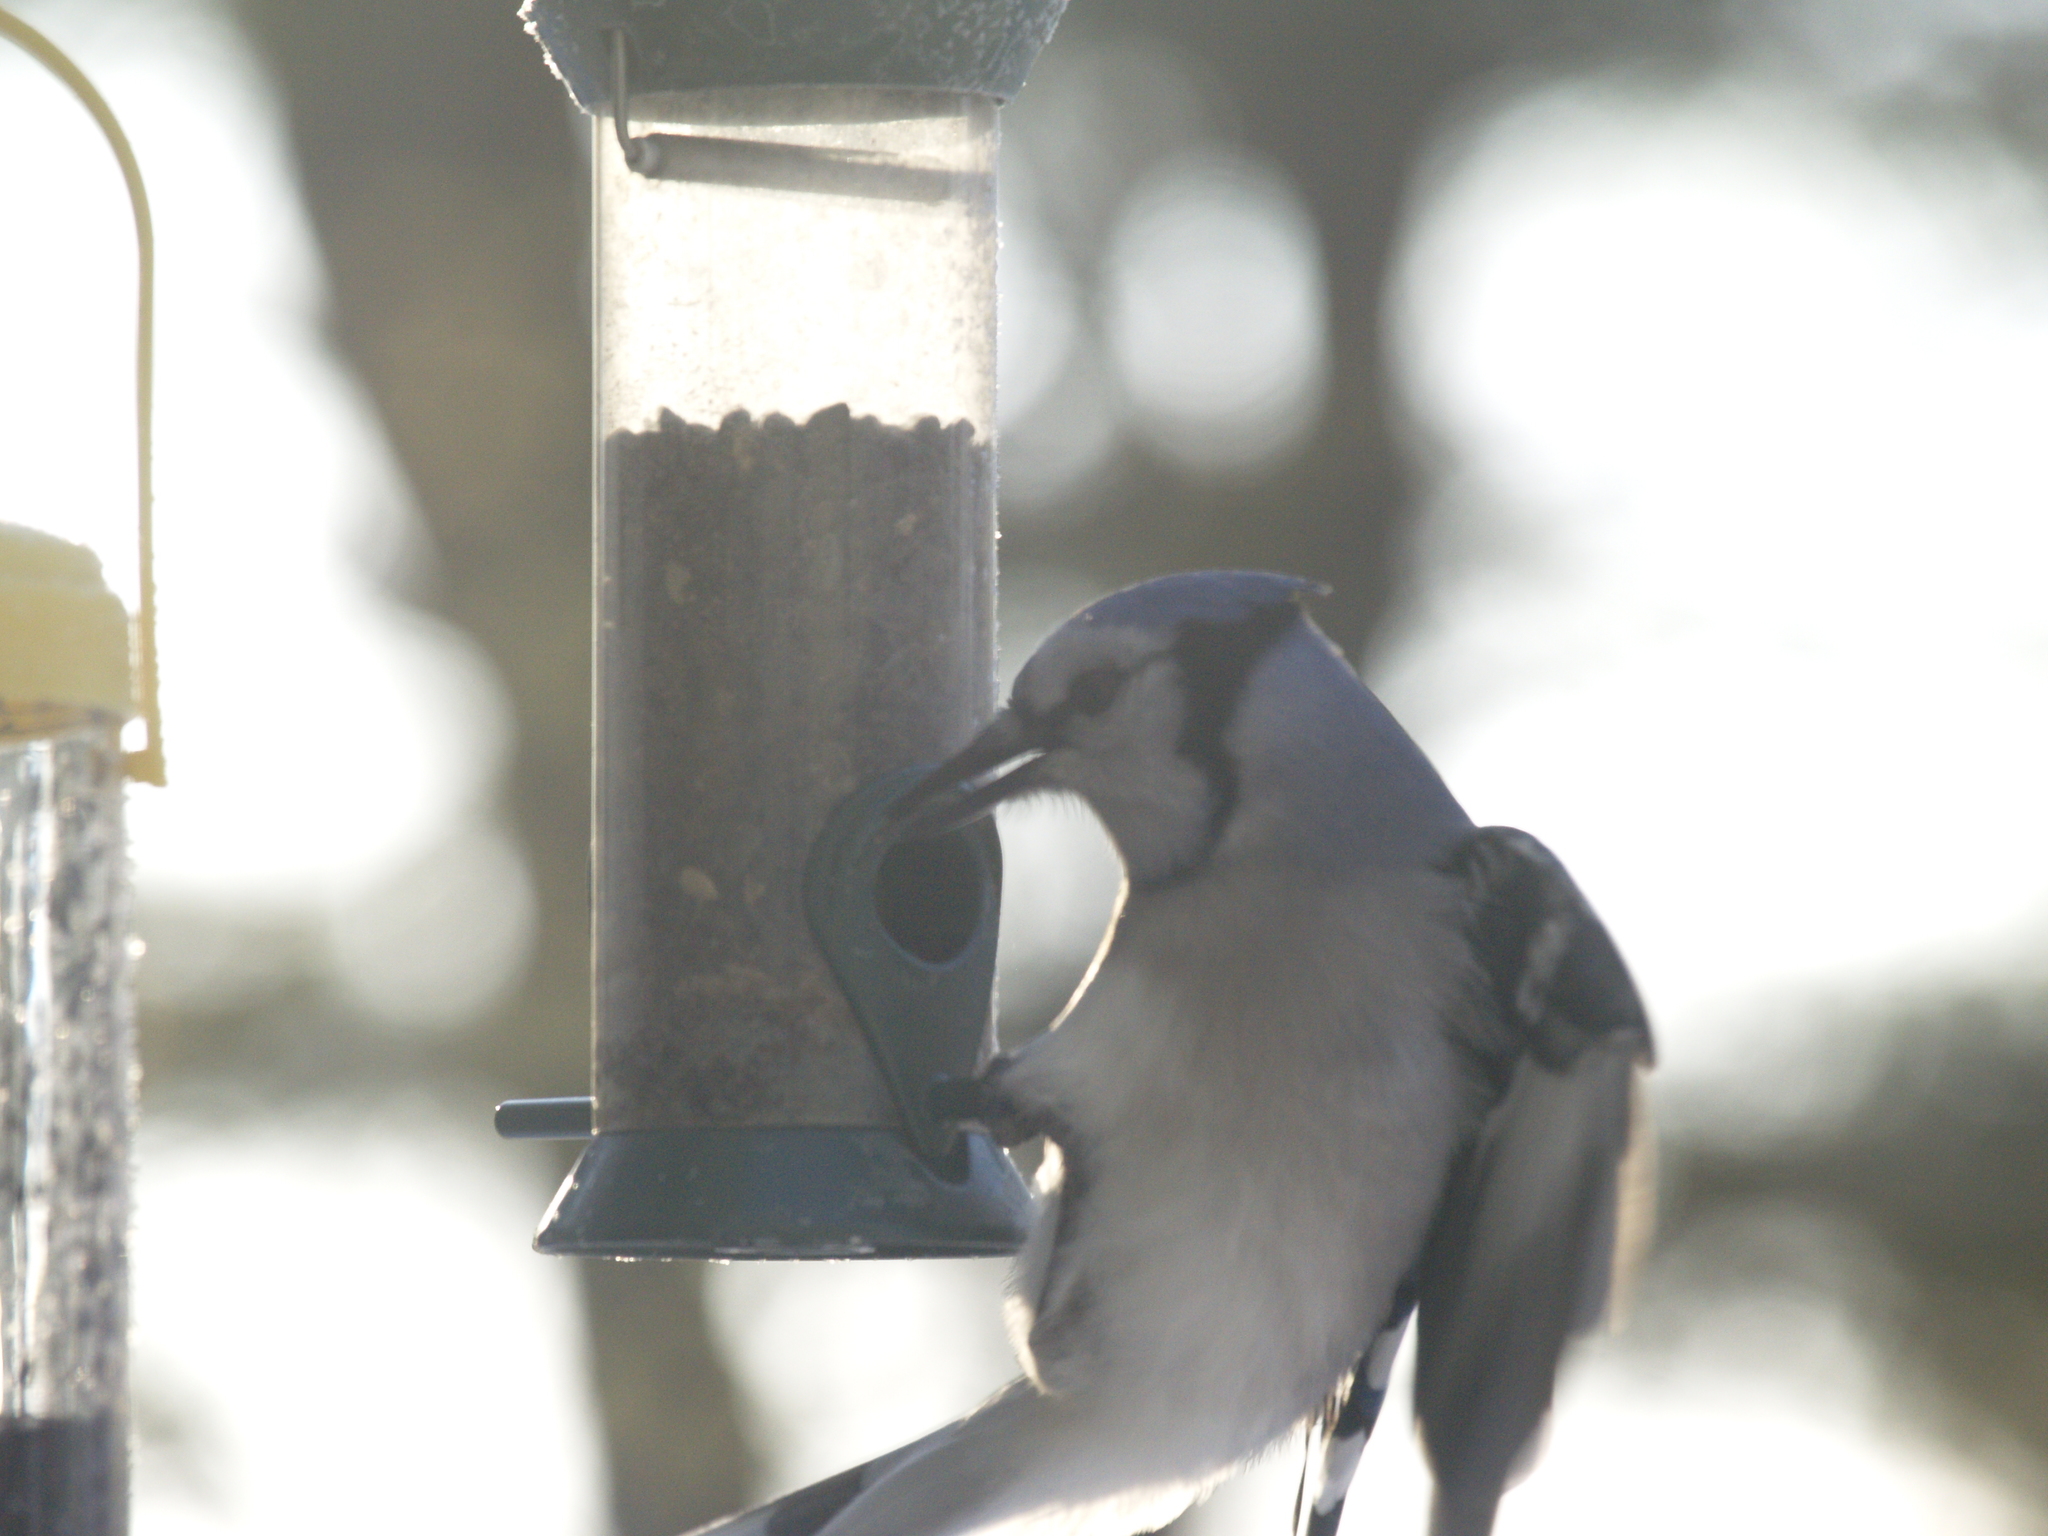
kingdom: Animalia
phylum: Chordata
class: Aves
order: Passeriformes
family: Corvidae
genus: Cyanocitta
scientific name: Cyanocitta cristata
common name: Blue jay
